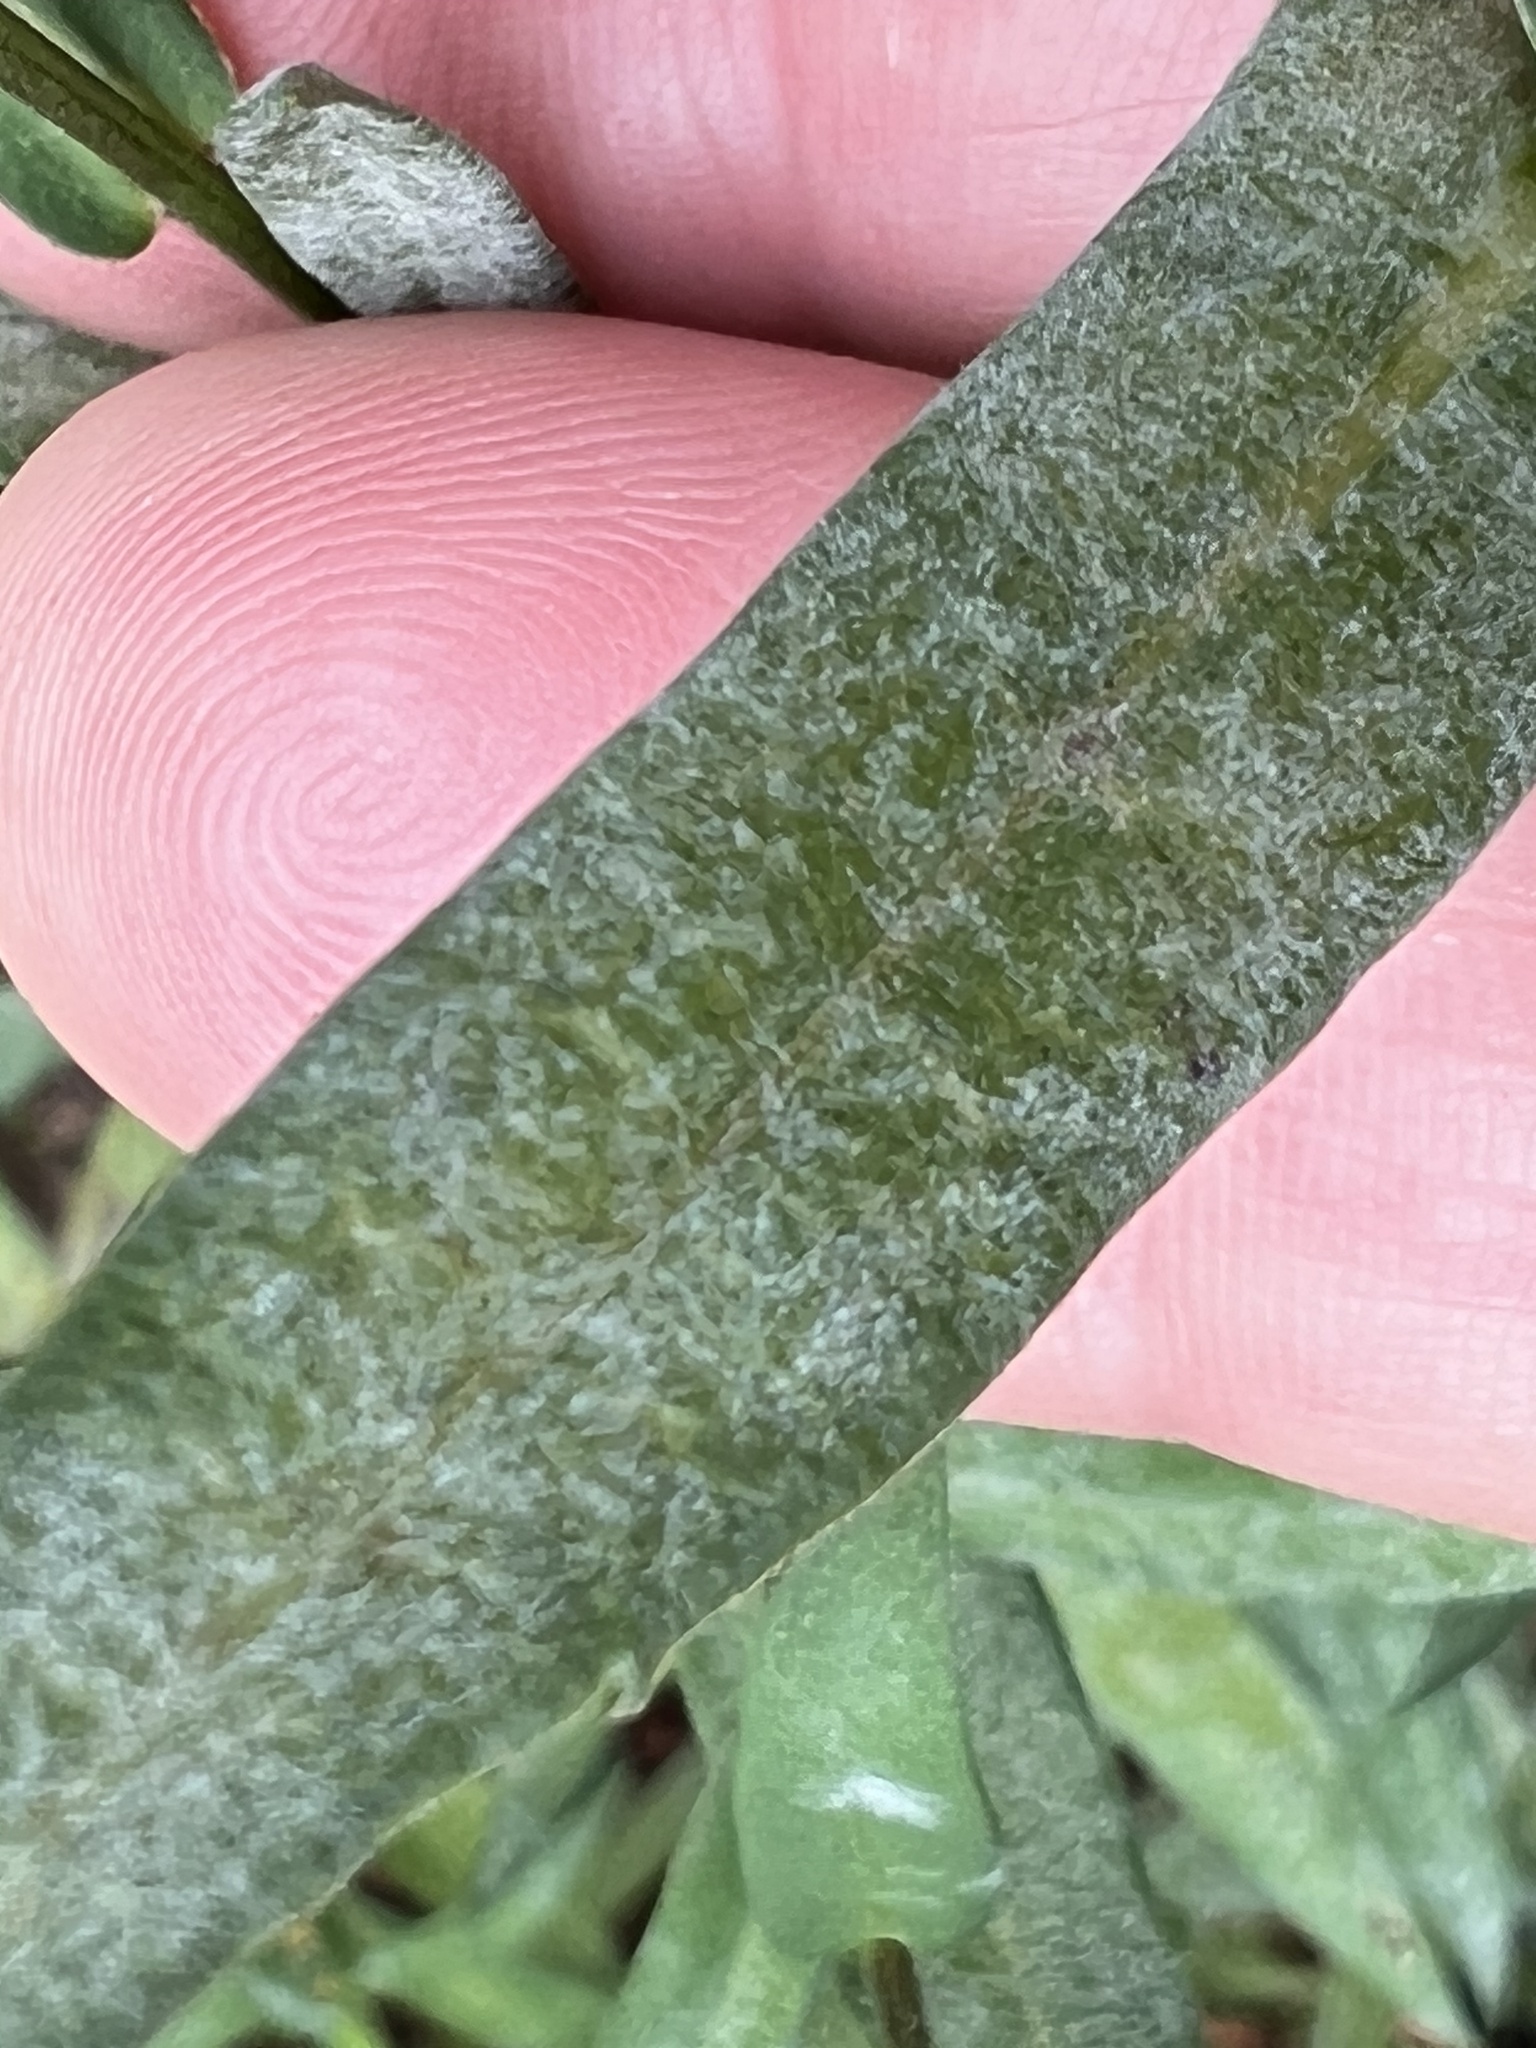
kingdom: Fungi
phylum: Ascomycota
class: Leotiomycetes
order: Helotiales
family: Erysiphaceae
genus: Golovinomyces
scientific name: Golovinomyces asterum
